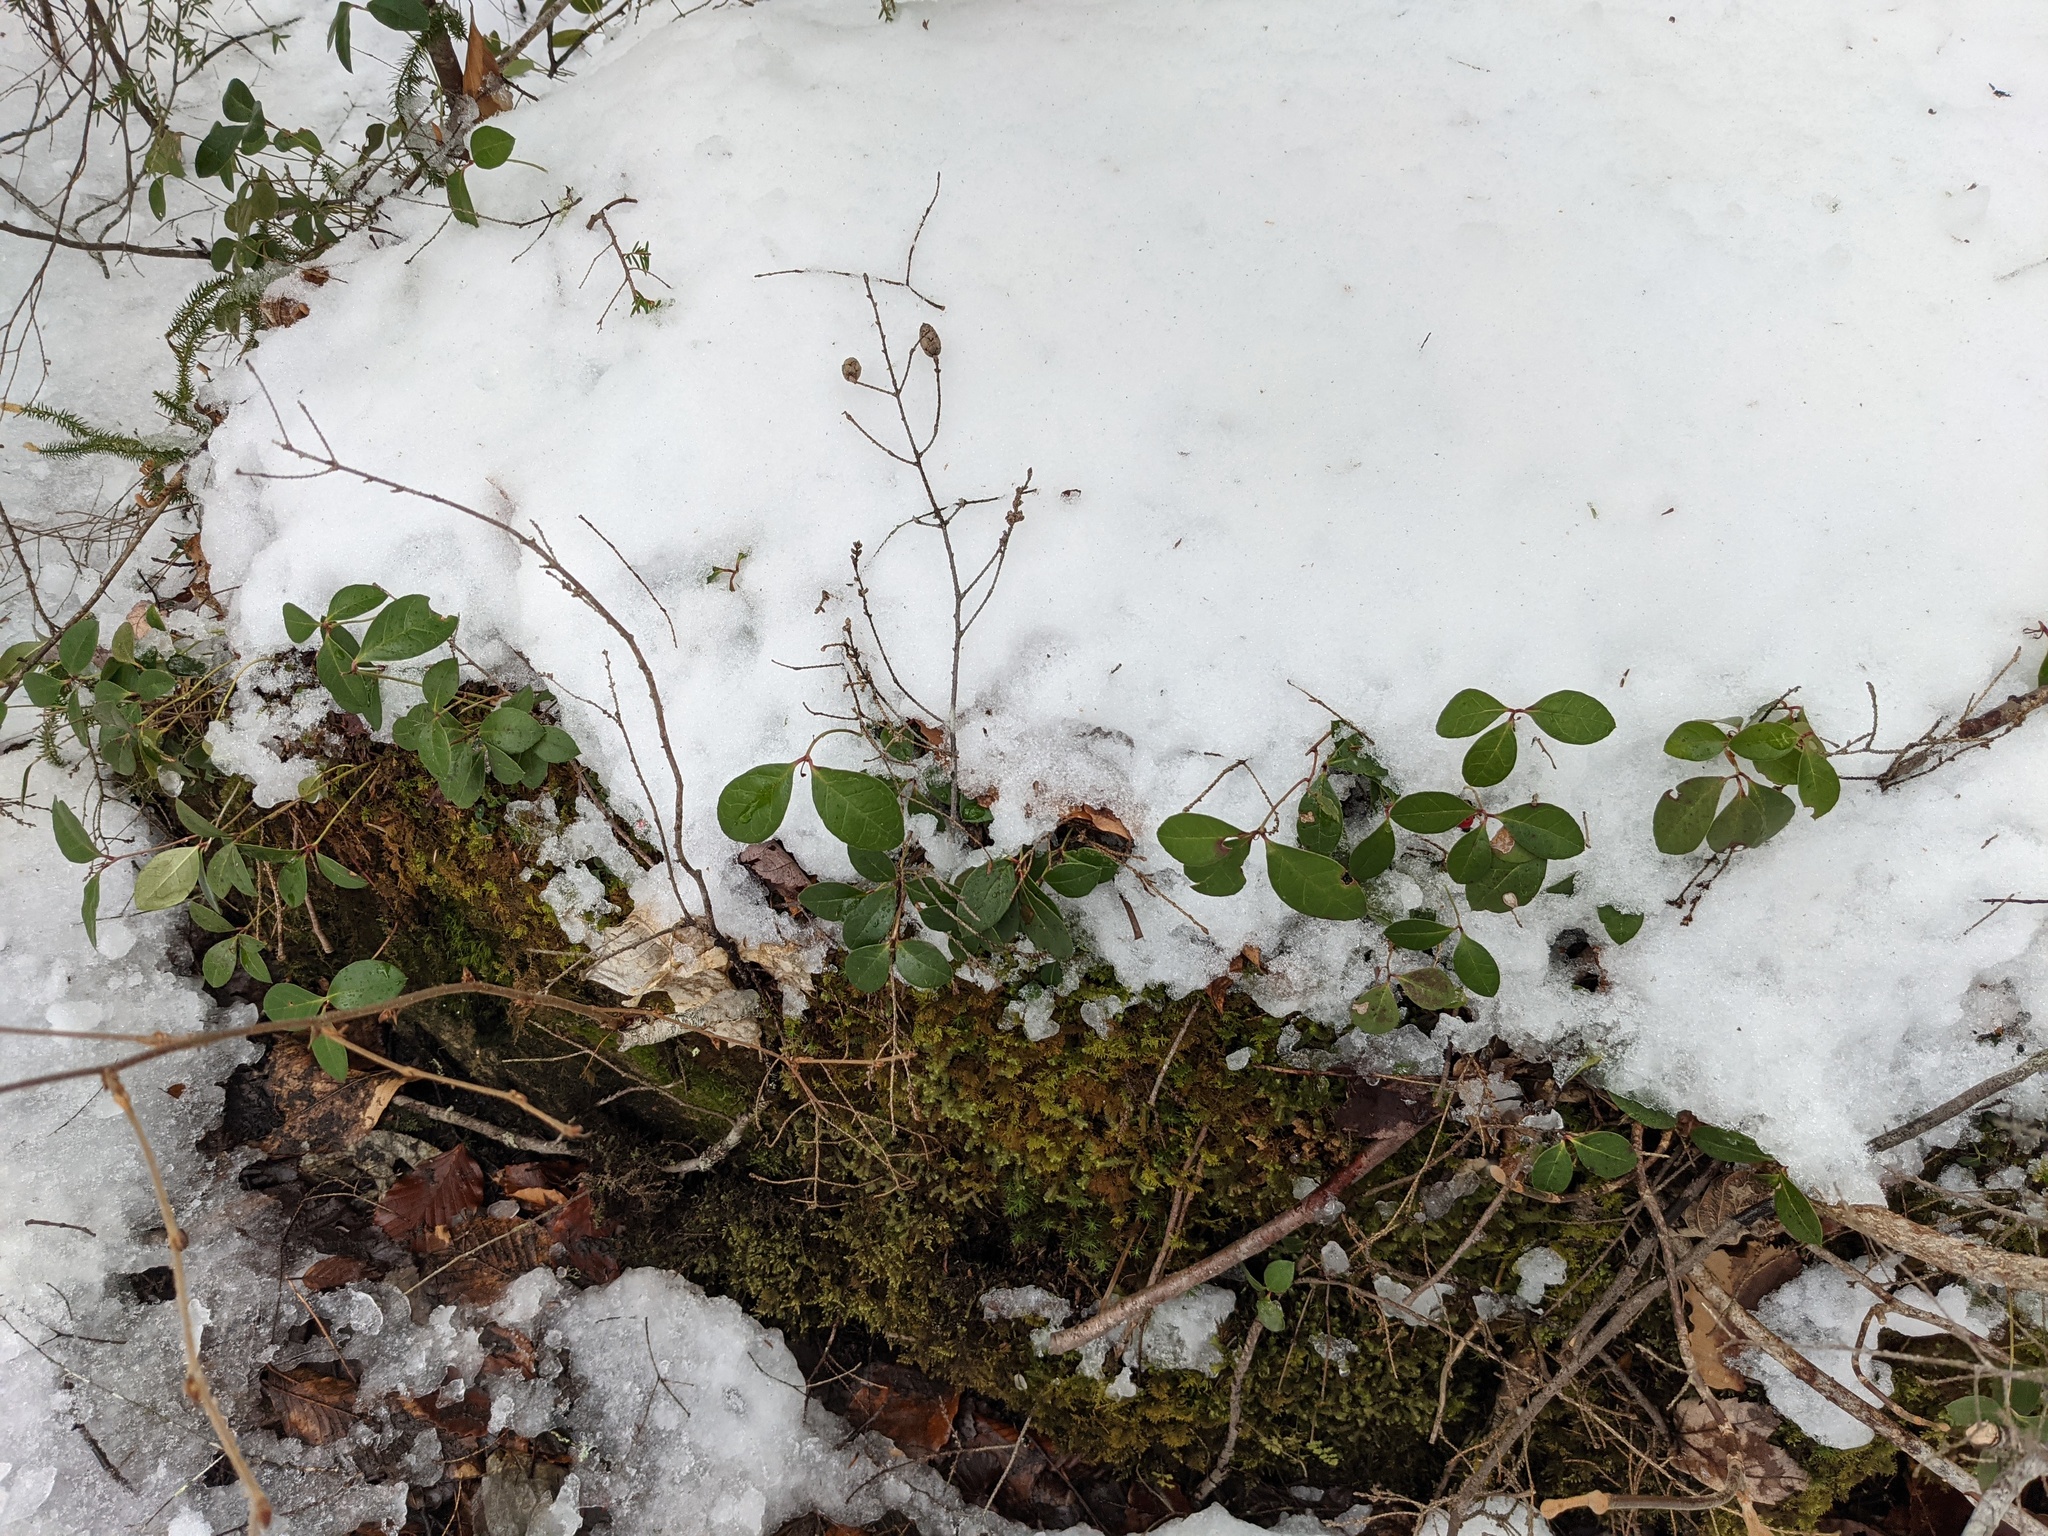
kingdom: Plantae
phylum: Tracheophyta
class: Magnoliopsida
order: Ericales
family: Ericaceae
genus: Gaultheria
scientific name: Gaultheria procumbens
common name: Checkerberry
